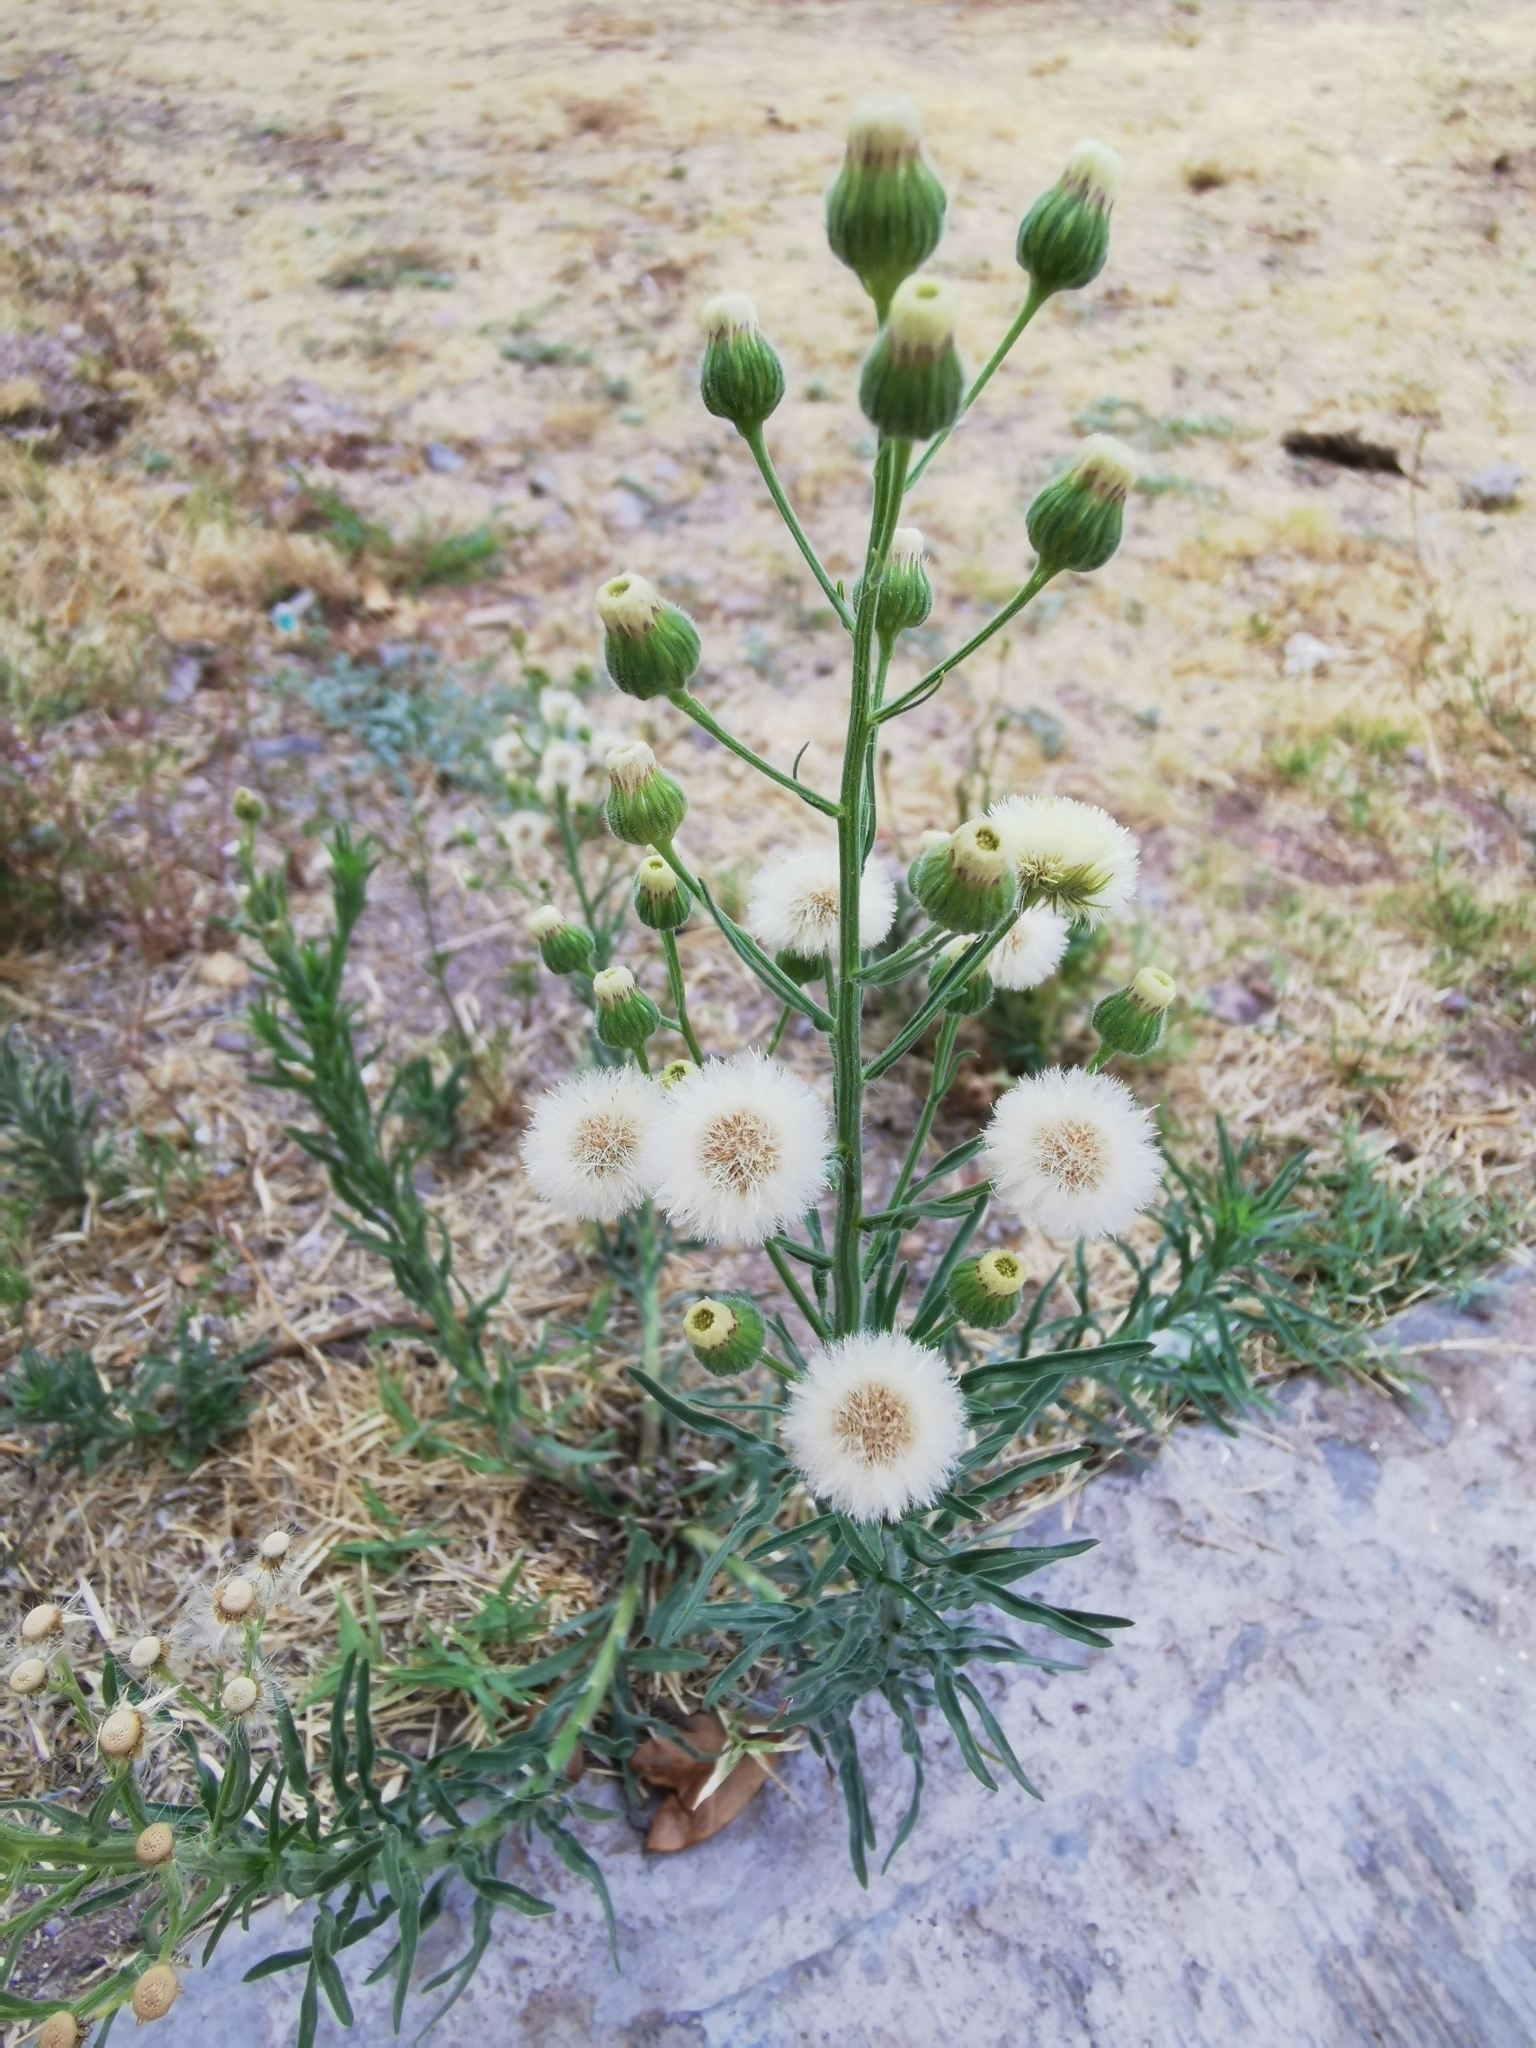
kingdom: Plantae
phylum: Tracheophyta
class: Magnoliopsida
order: Asterales
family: Asteraceae
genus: Erigeron
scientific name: Erigeron bonariensis
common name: Argentine fleabane
